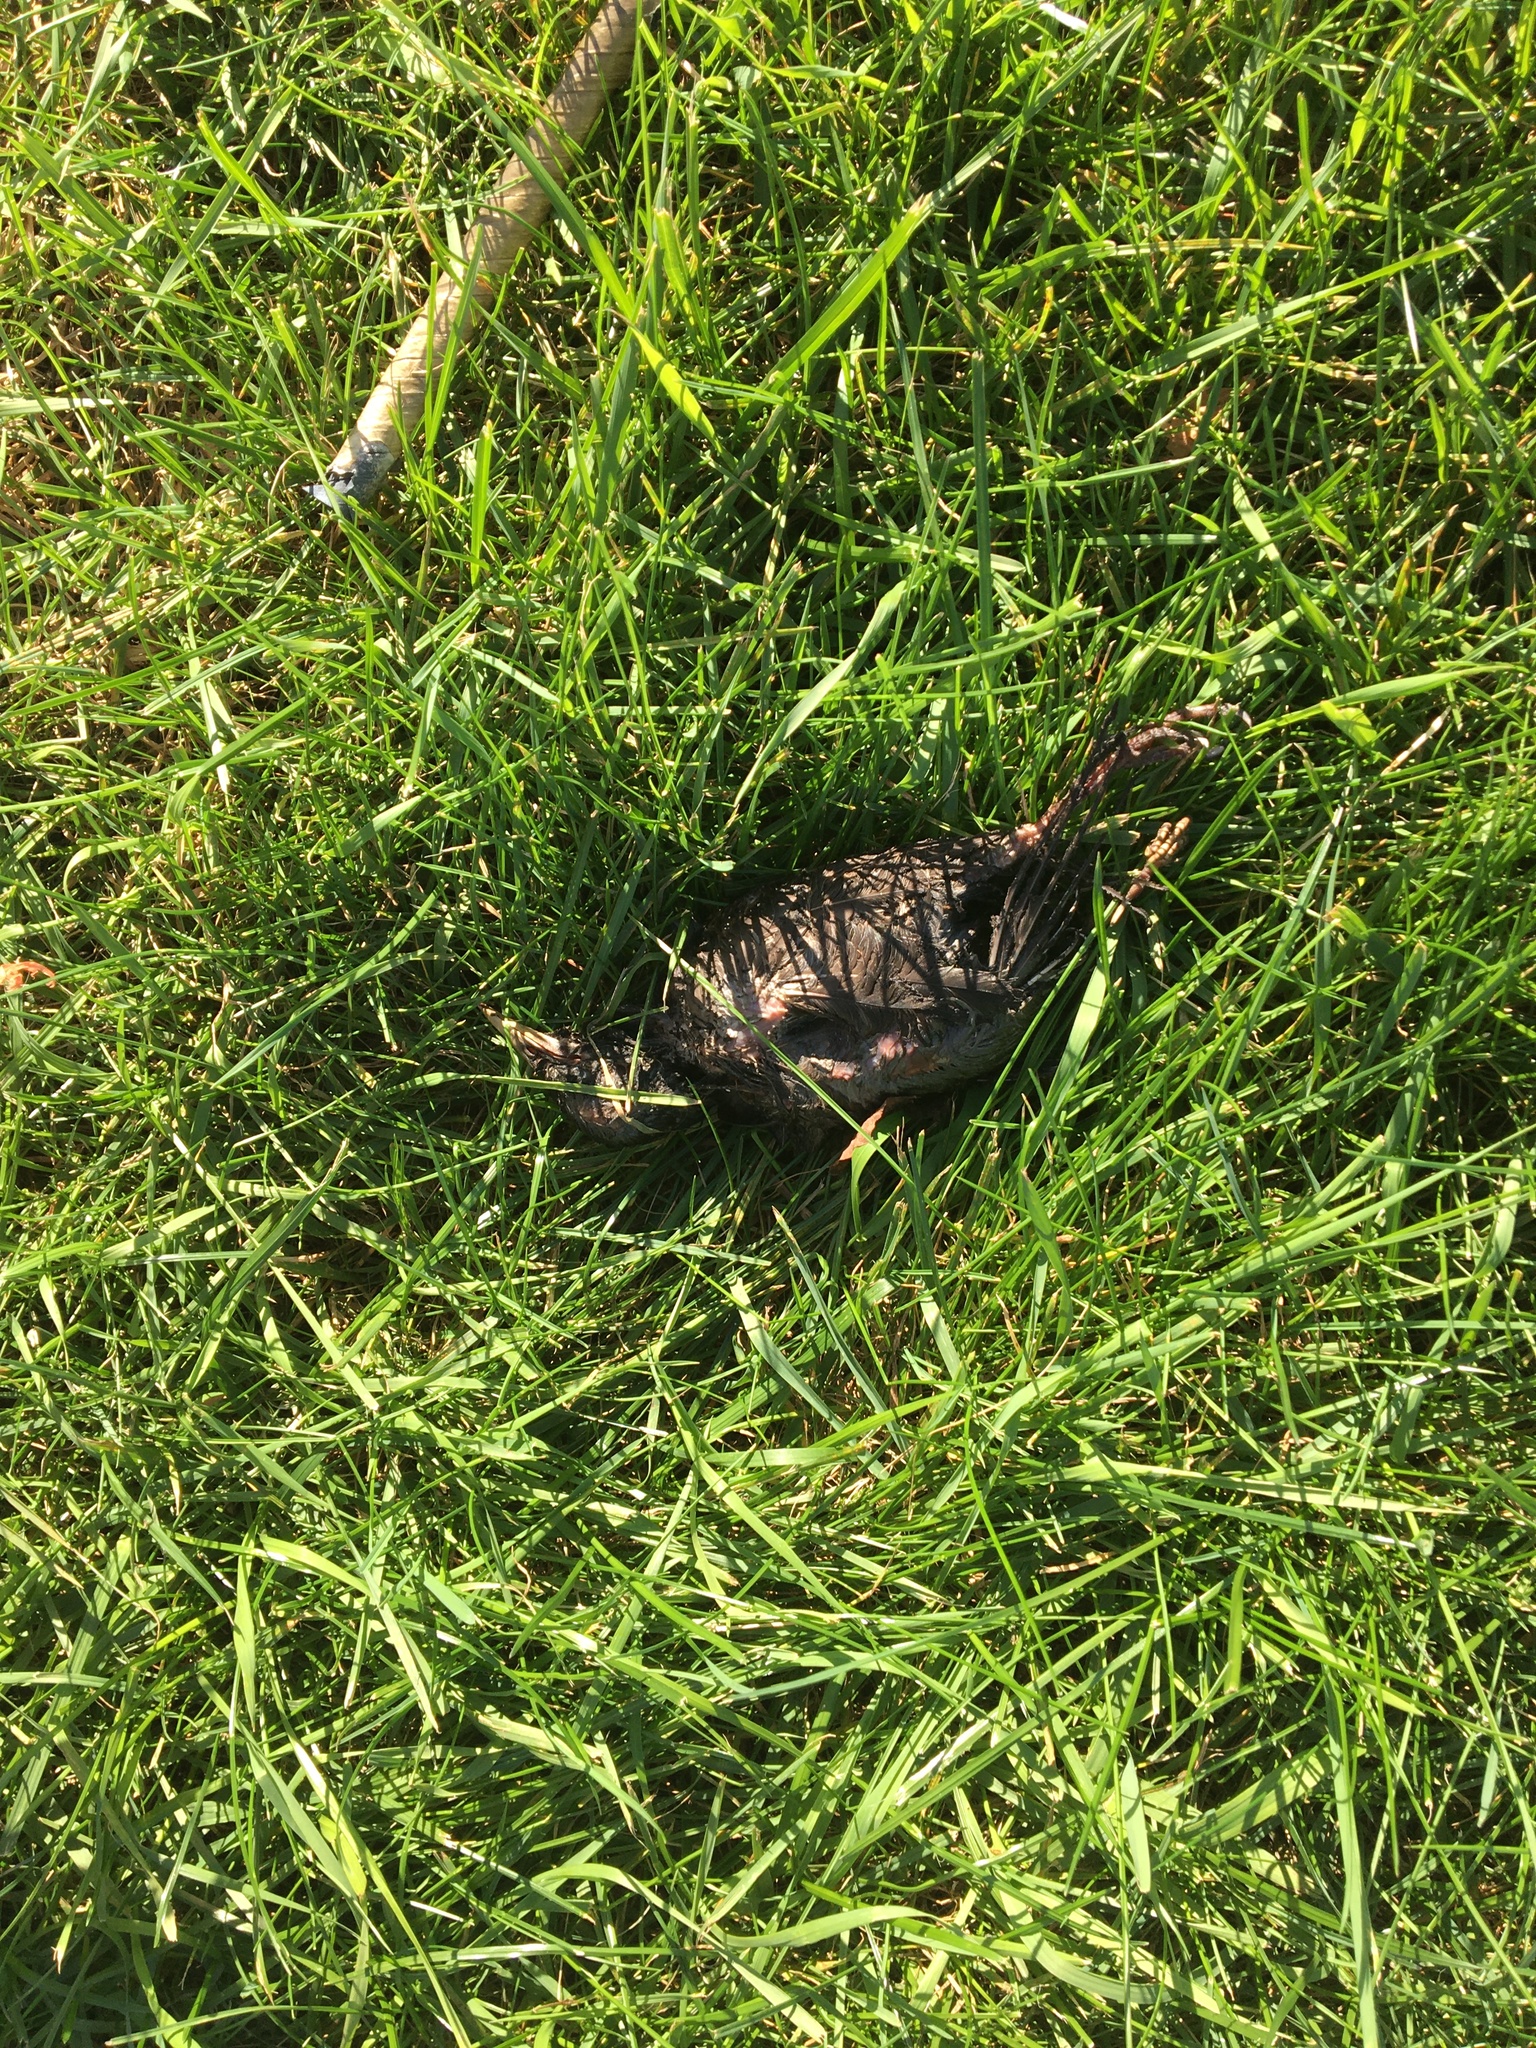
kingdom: Animalia
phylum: Chordata
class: Aves
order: Passeriformes
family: Sturnidae
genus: Sturnus
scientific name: Sturnus vulgaris
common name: Common starling
